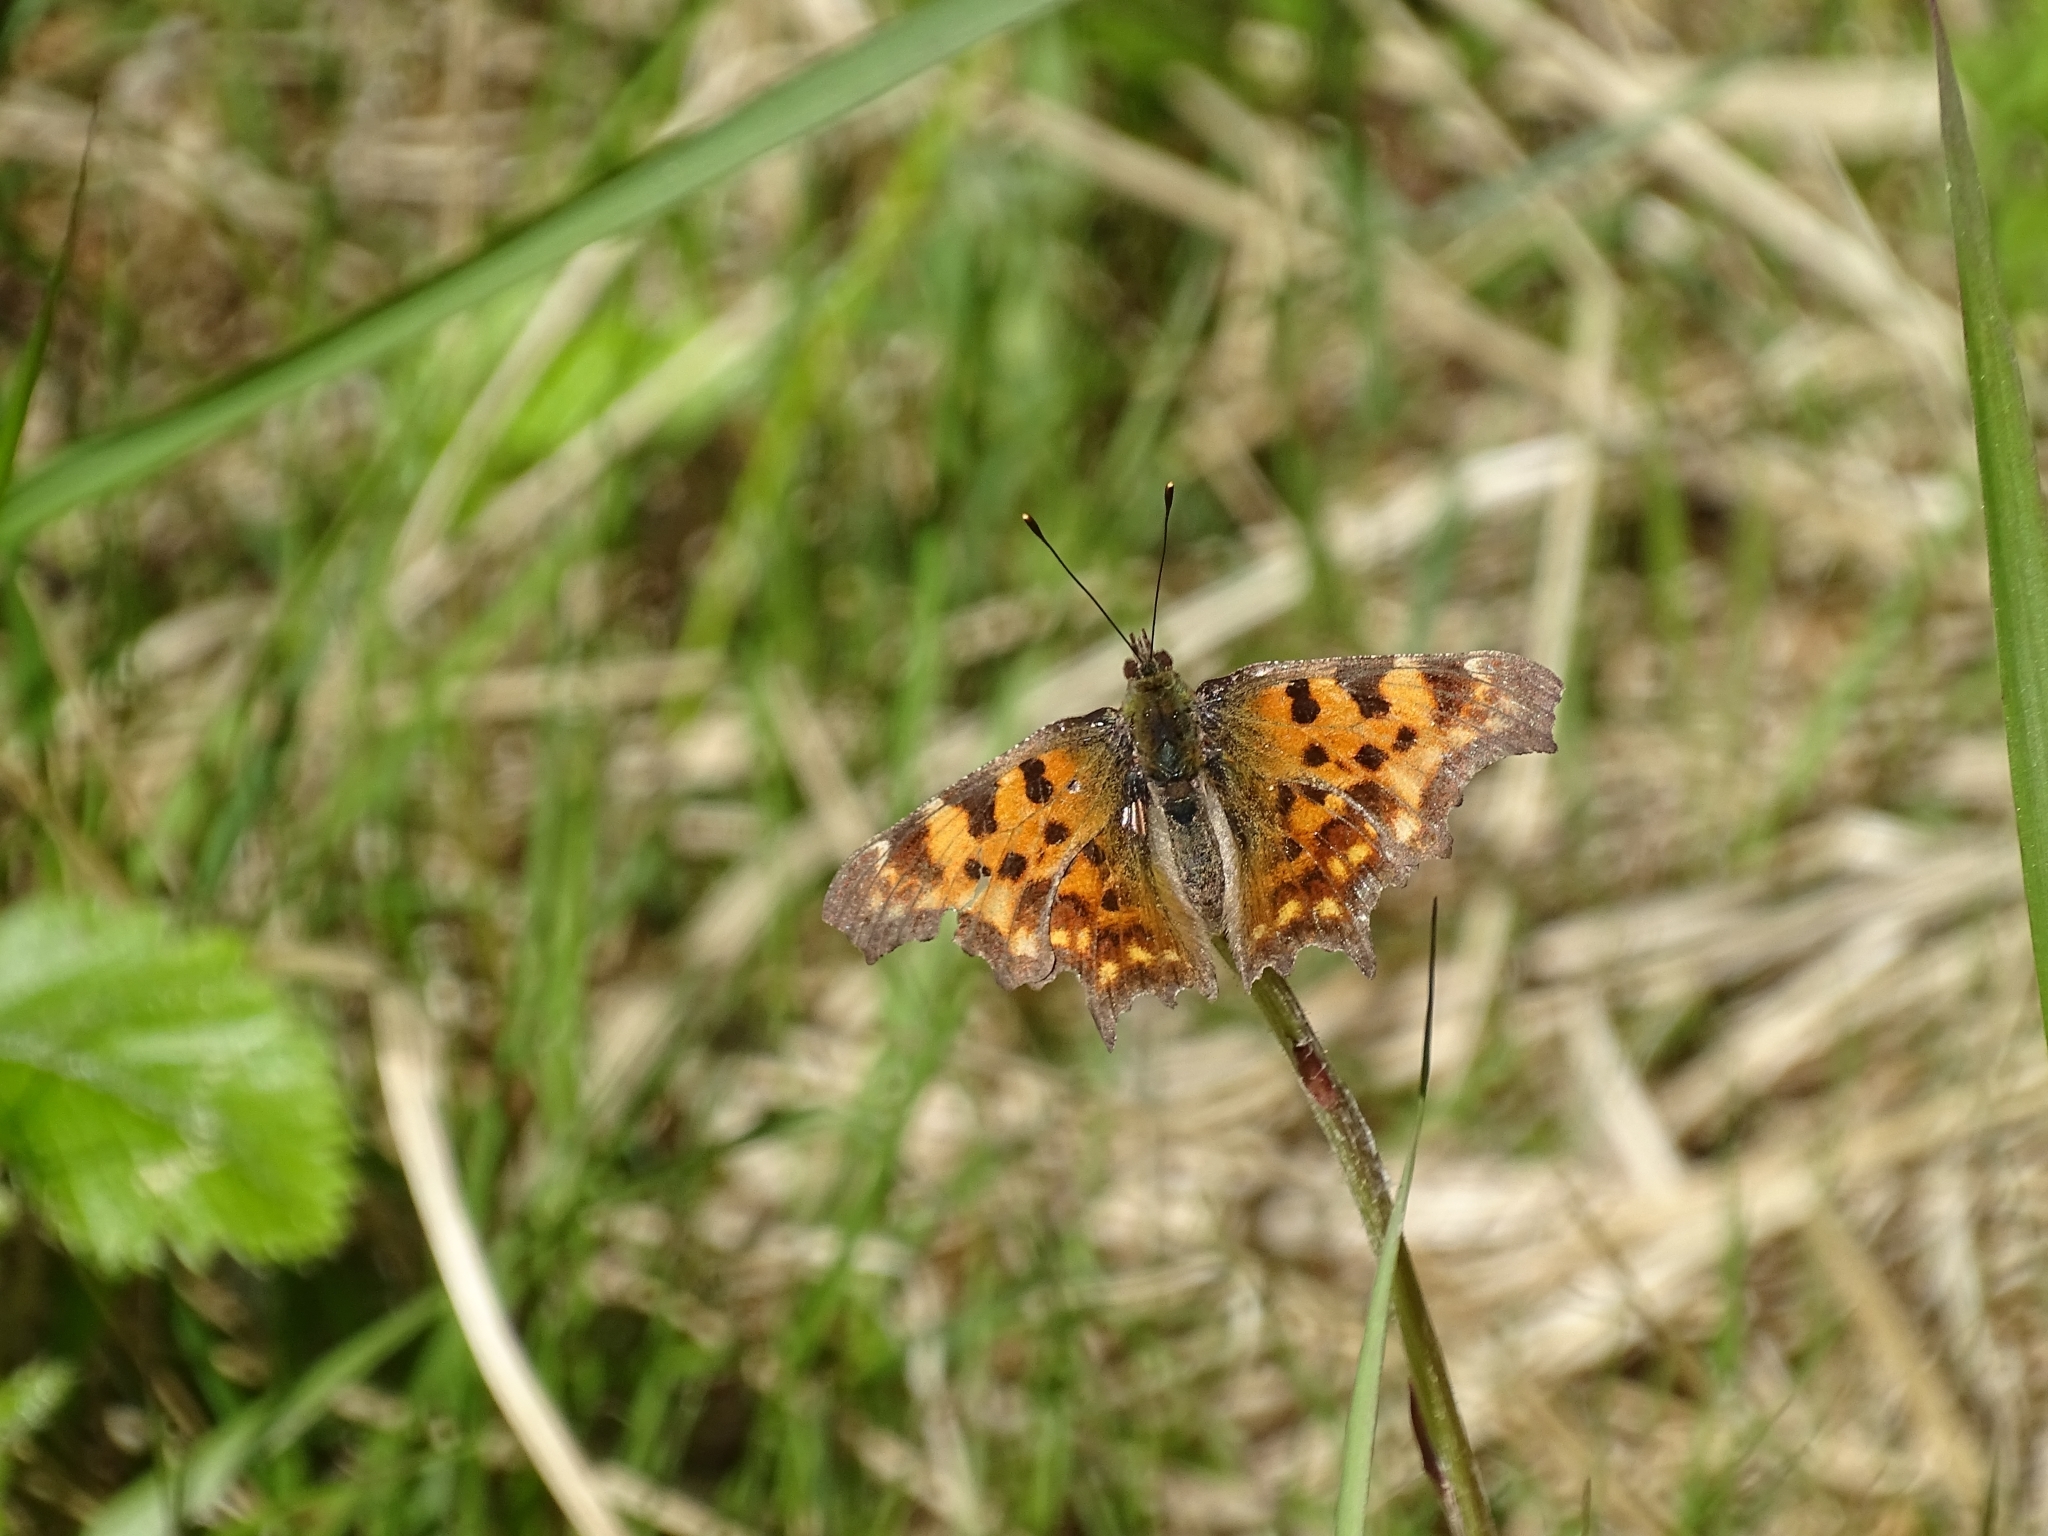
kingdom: Animalia
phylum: Arthropoda
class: Insecta
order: Lepidoptera
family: Nymphalidae
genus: Polygonia
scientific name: Polygonia c-album
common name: Comma
